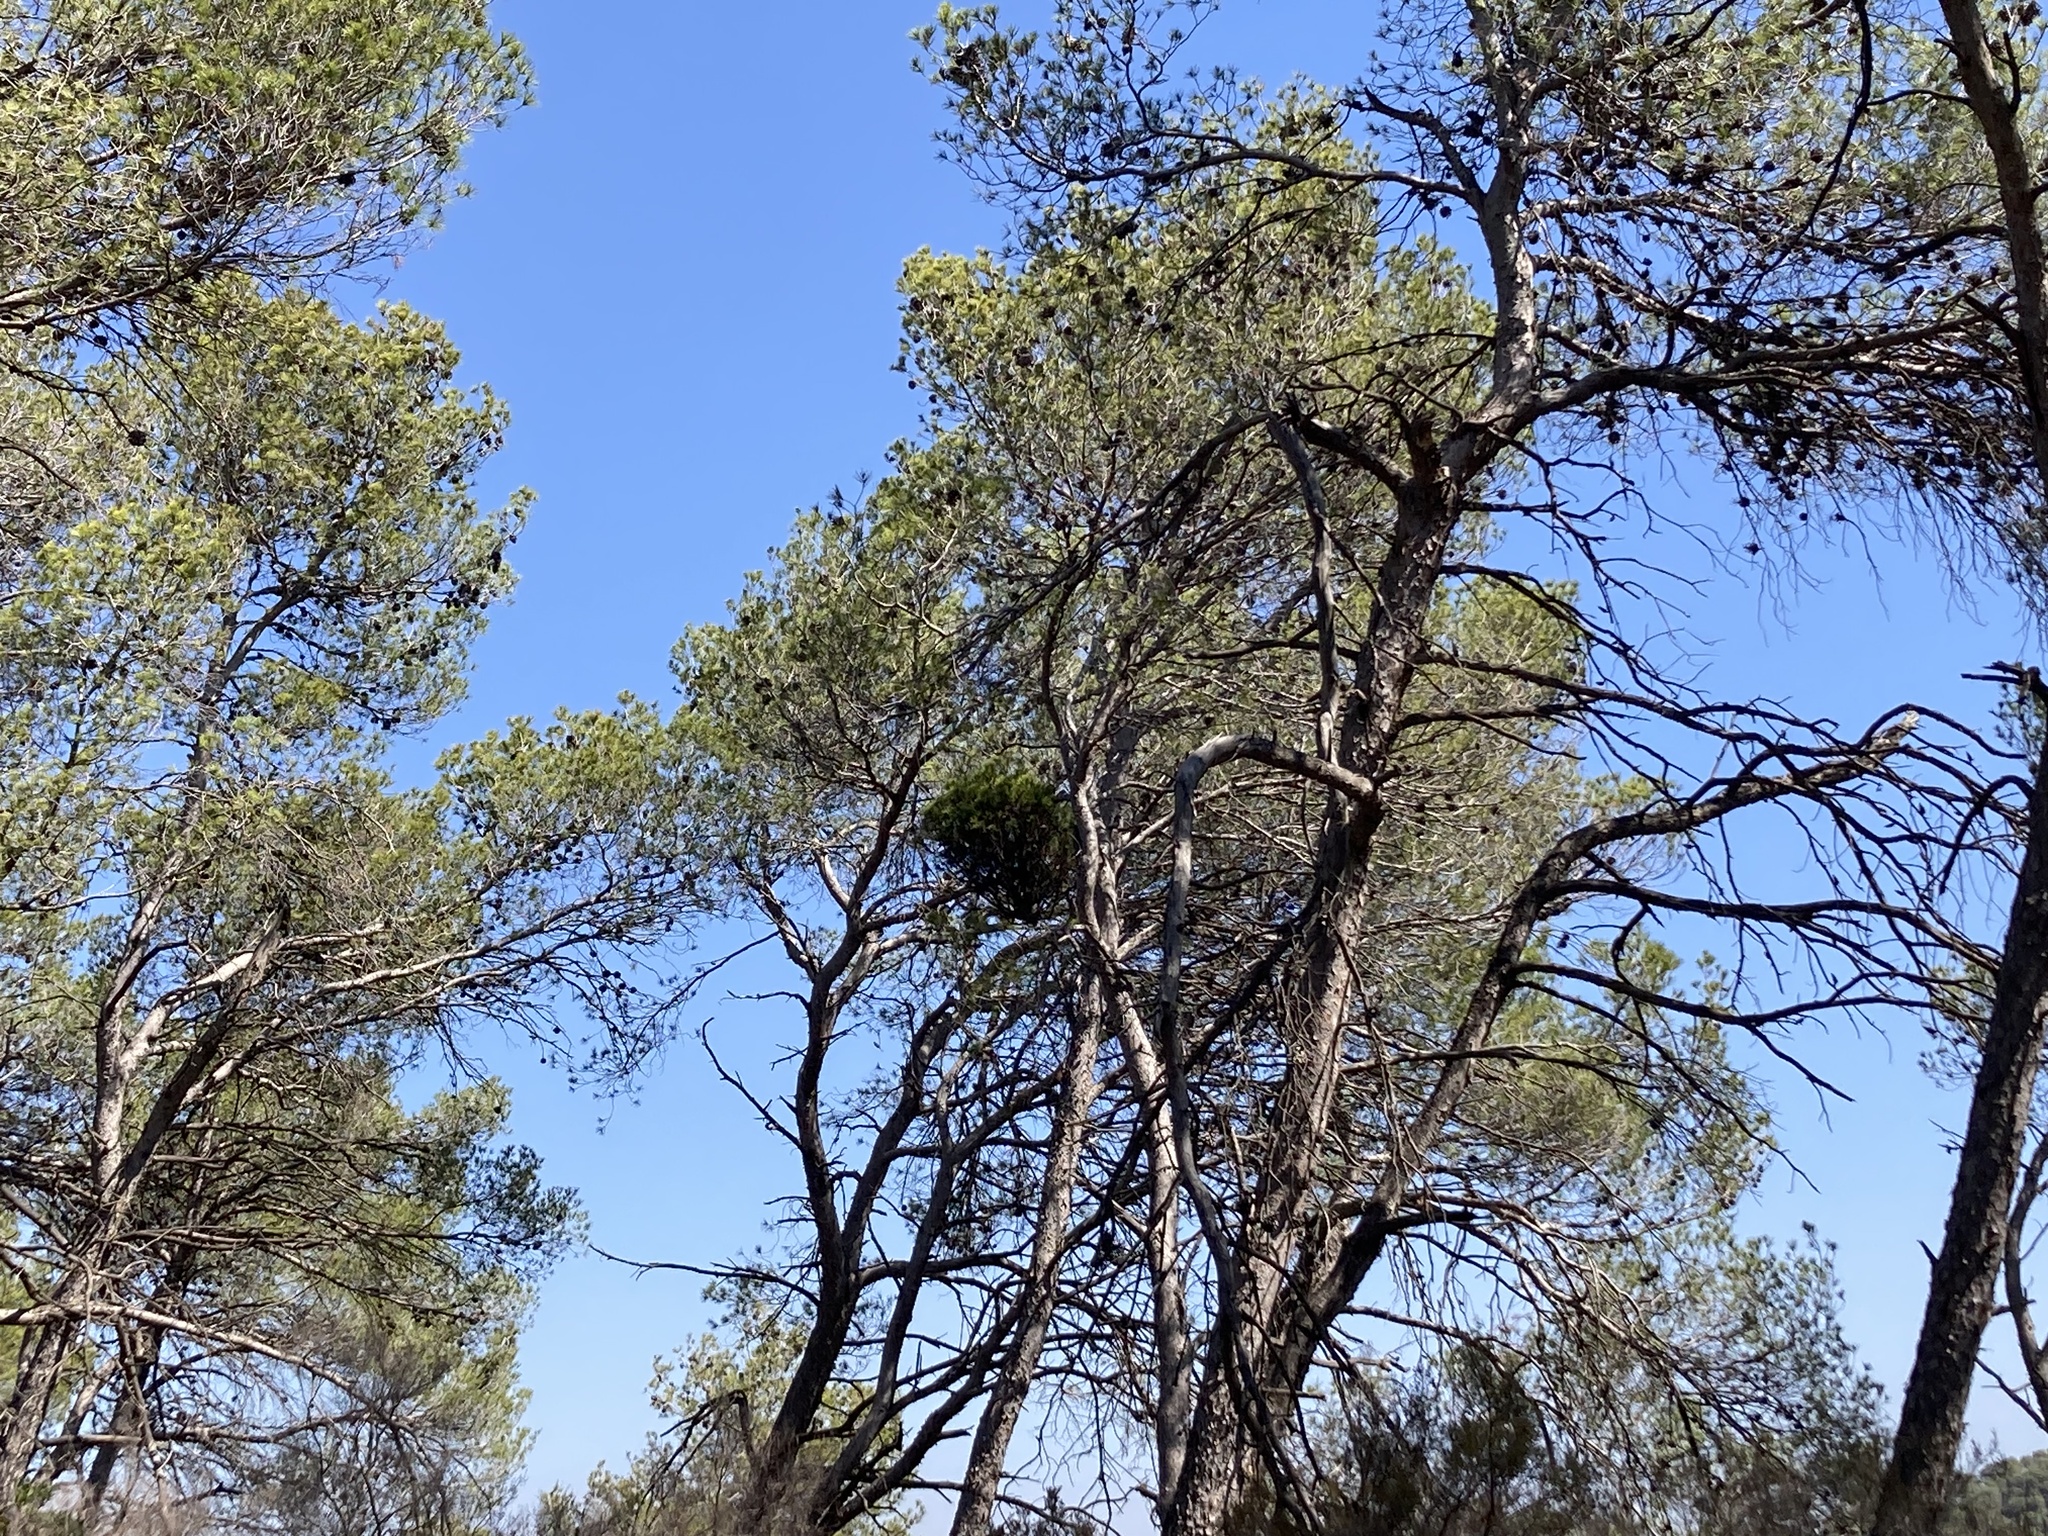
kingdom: Bacteria
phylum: Firmicutes
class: Bacilli
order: Acholeplasmatales
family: Acholeplasmataceae
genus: Phytoplasma
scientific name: Phytoplasma pini
